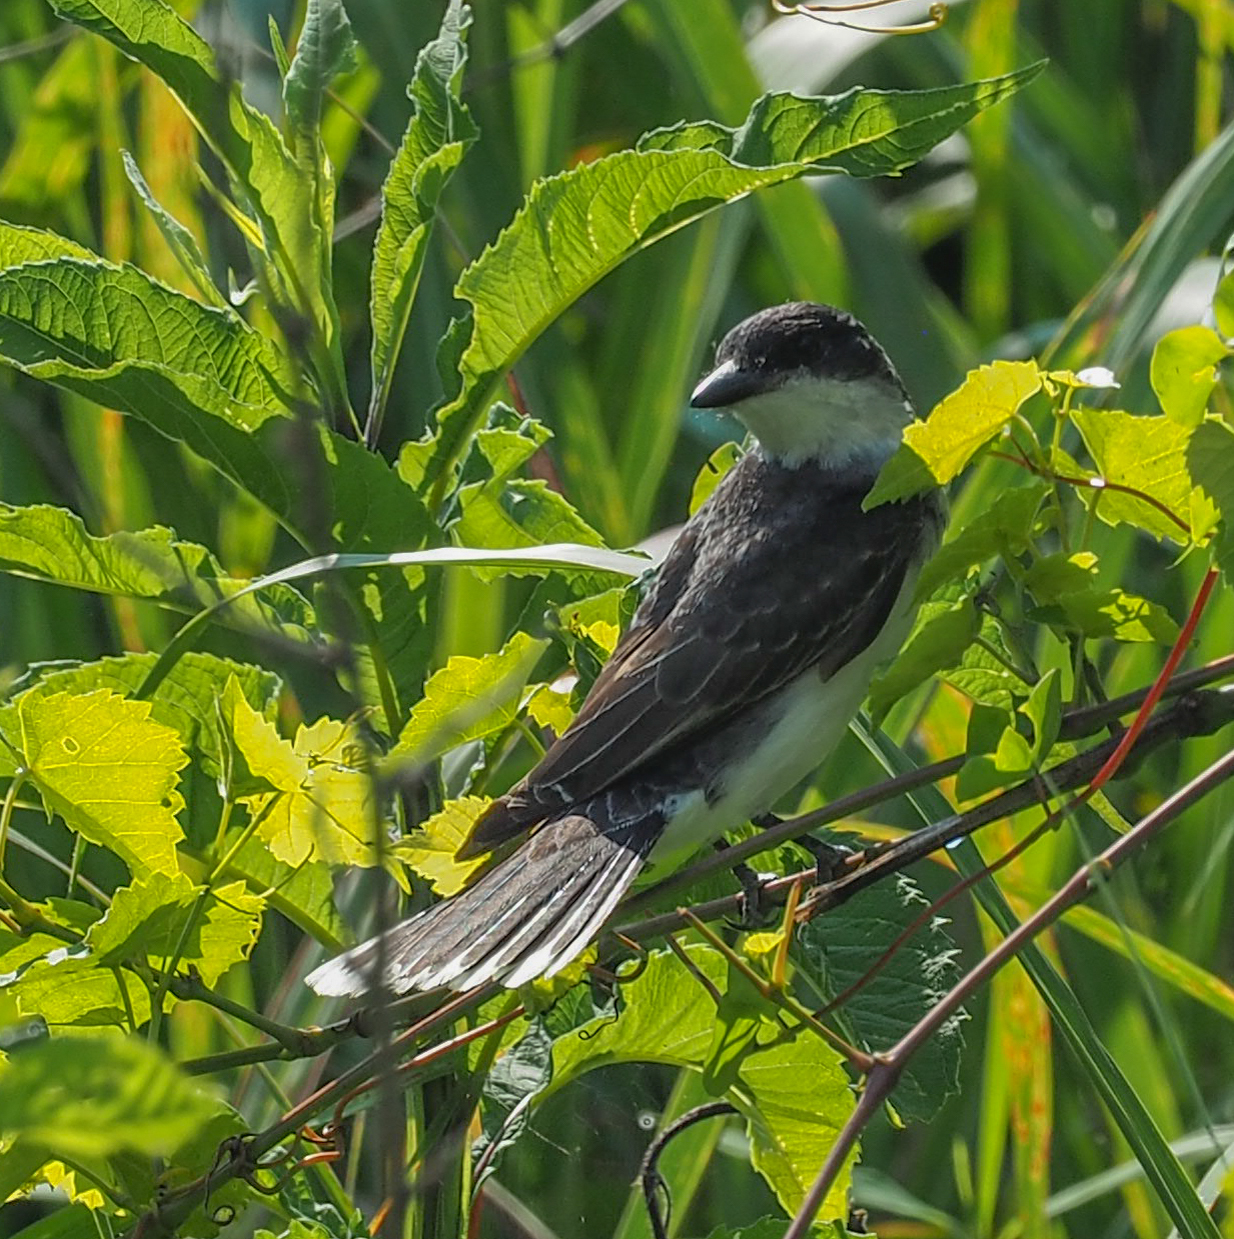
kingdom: Animalia
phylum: Chordata
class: Aves
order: Passeriformes
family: Tyrannidae
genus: Tyrannus
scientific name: Tyrannus tyrannus
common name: Eastern kingbird
